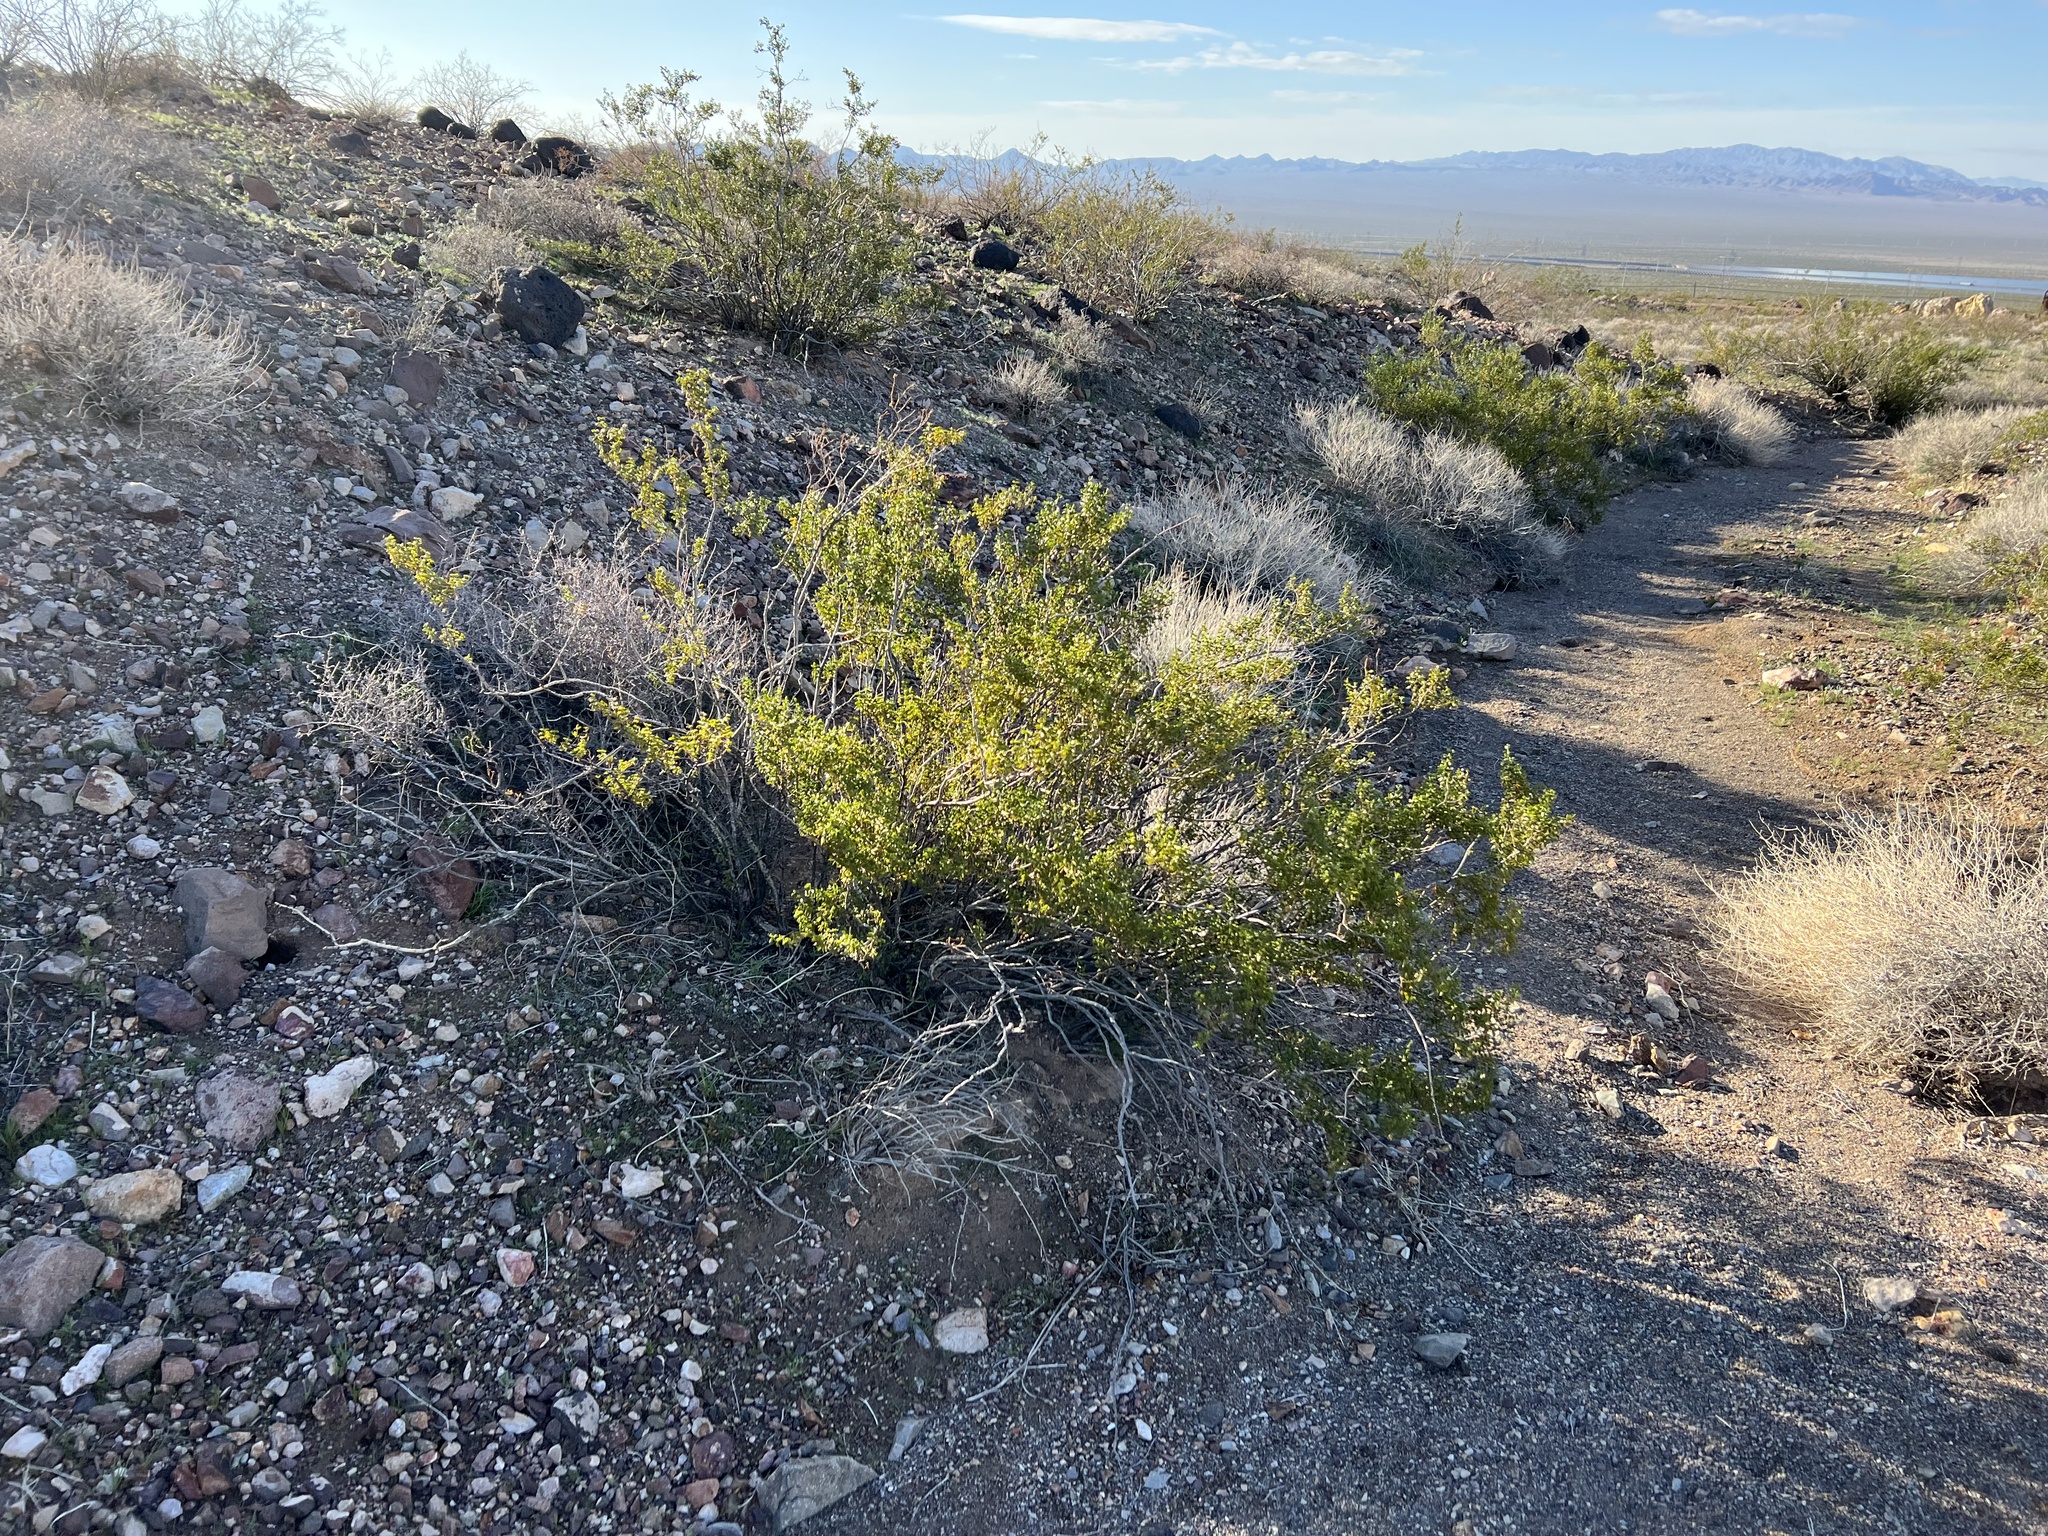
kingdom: Plantae
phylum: Tracheophyta
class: Magnoliopsida
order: Zygophyllales
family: Zygophyllaceae
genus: Larrea
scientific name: Larrea tridentata
